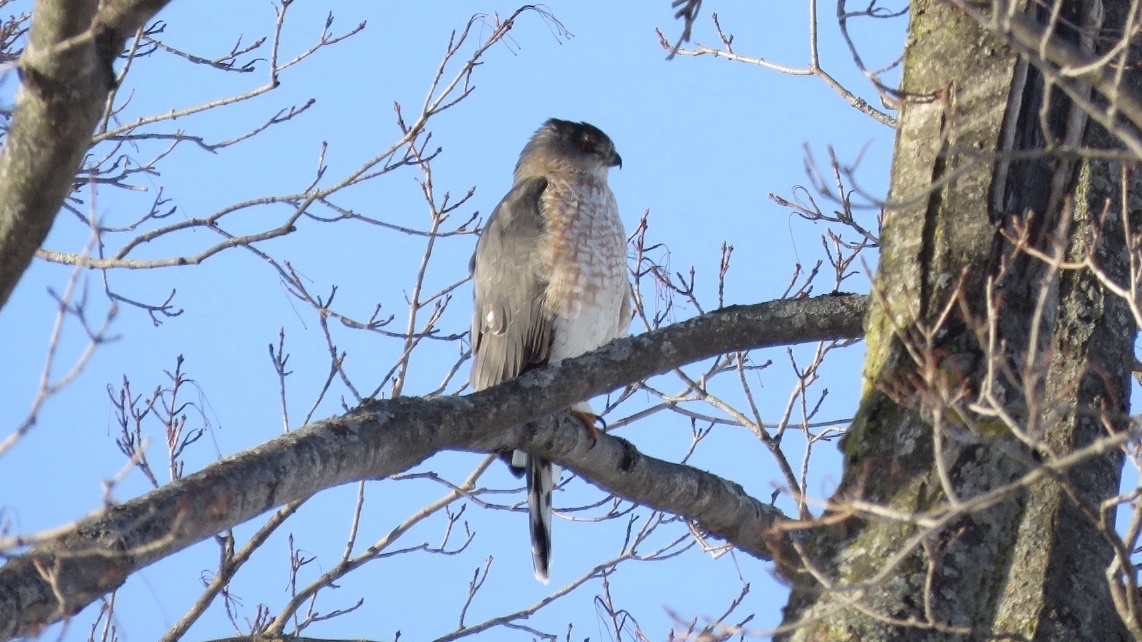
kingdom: Animalia
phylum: Chordata
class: Aves
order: Accipitriformes
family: Accipitridae
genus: Accipiter
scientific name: Accipiter cooperii
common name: Cooper's hawk
